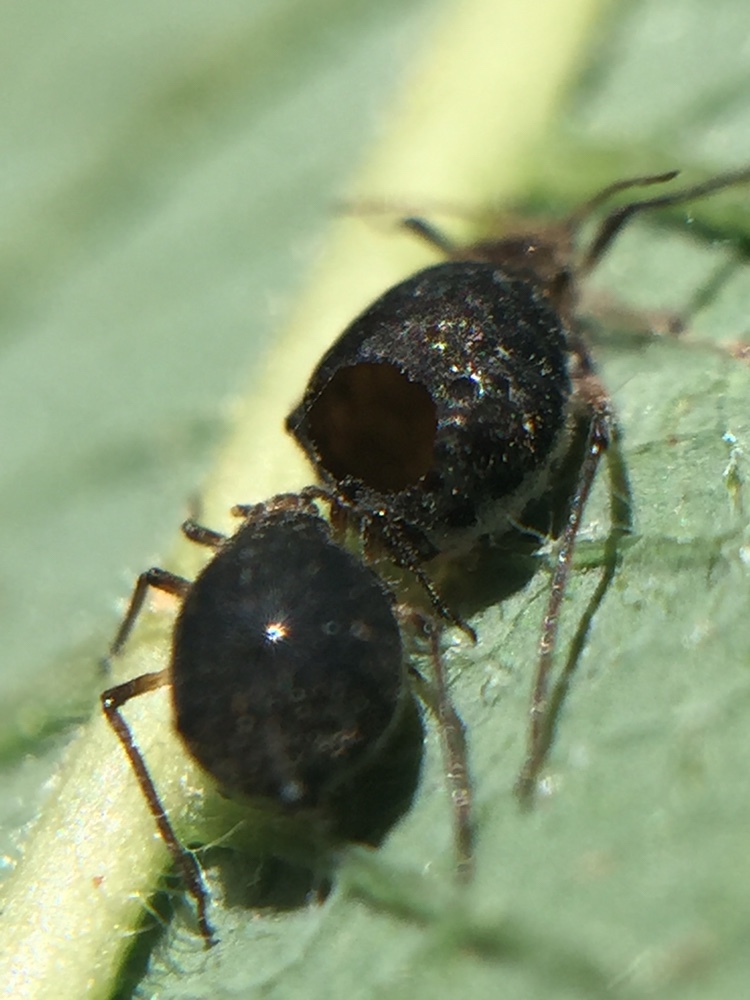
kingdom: Animalia
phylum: Arthropoda
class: Insecta
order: Hymenoptera
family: Braconidae
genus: Pauesia
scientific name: Pauesia nigrovaria
